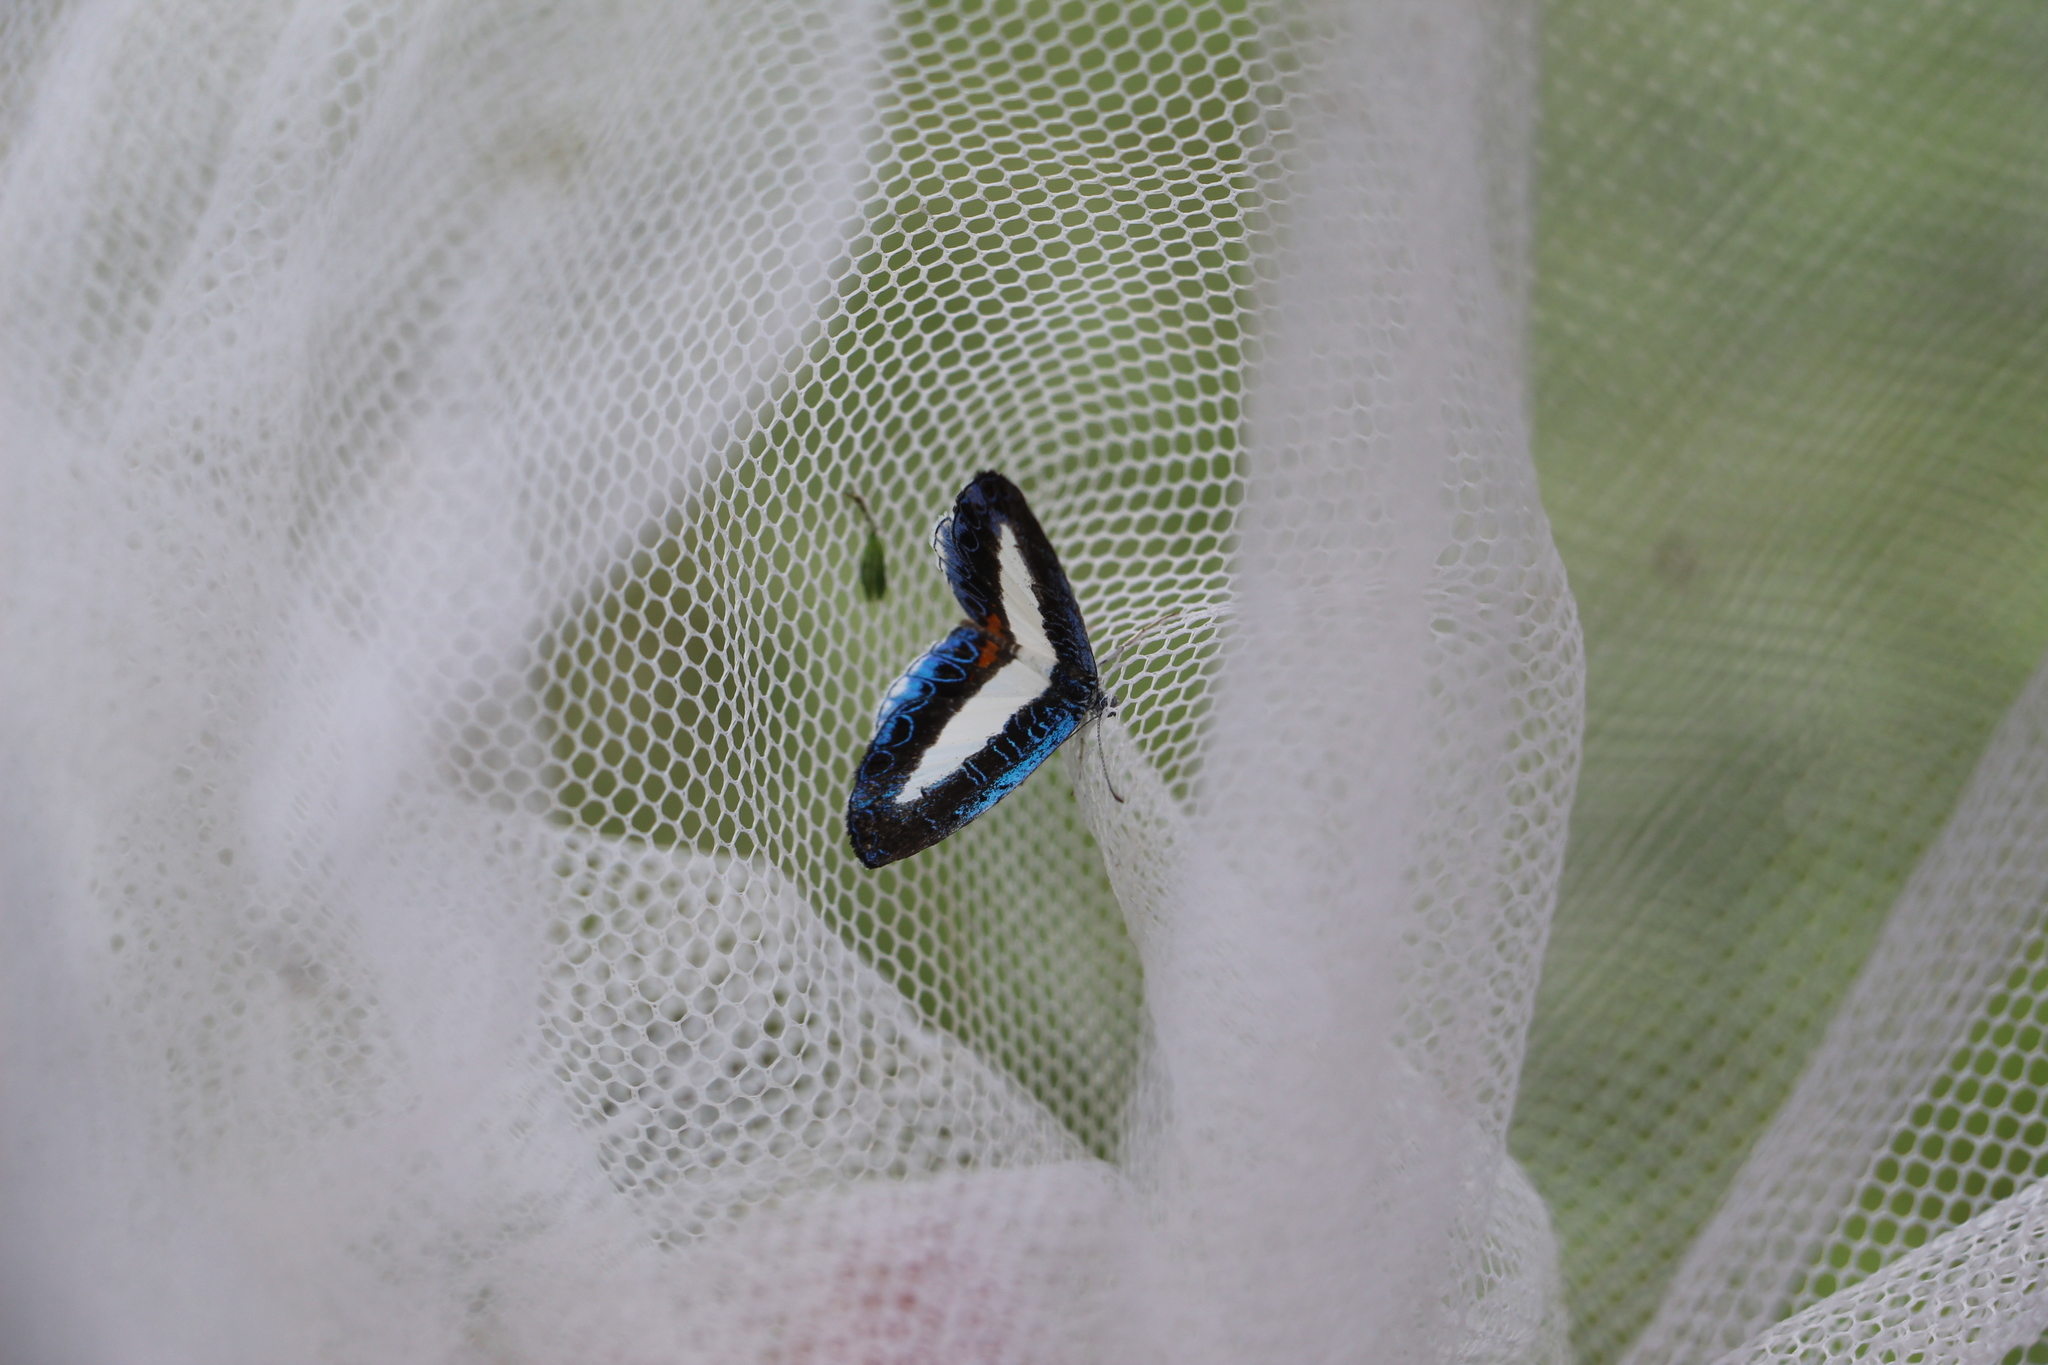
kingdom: Animalia
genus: Nymphidium
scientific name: Nymphidium mantus
